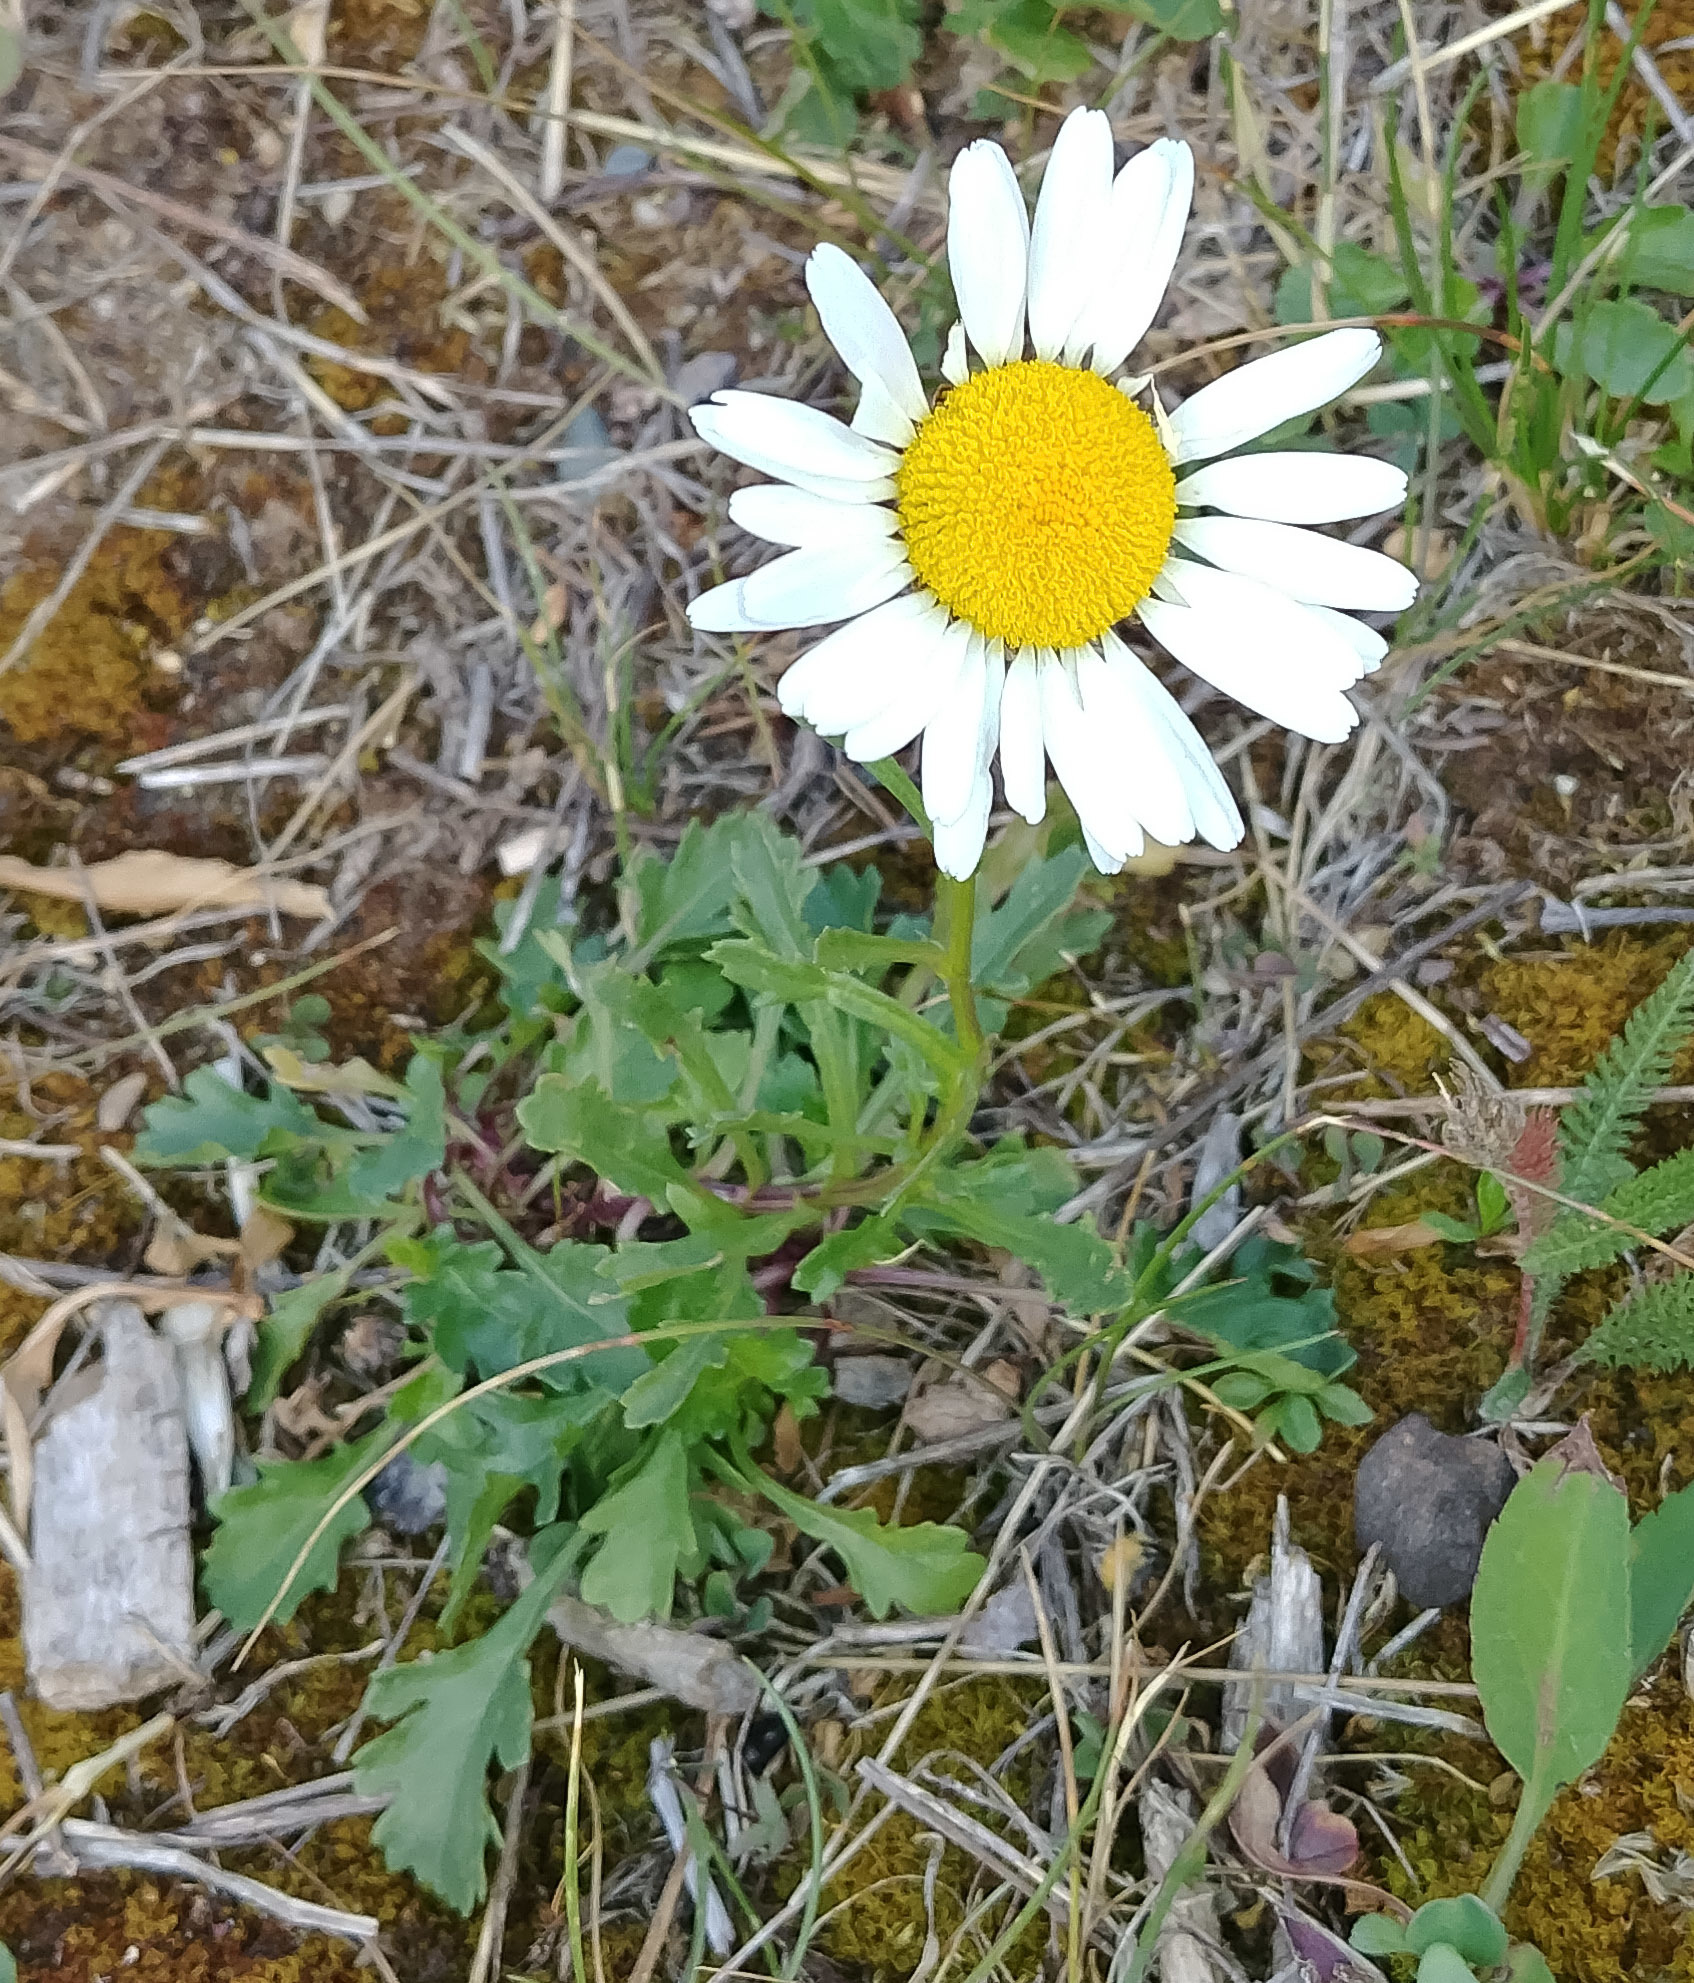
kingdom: Plantae
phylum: Tracheophyta
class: Magnoliopsida
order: Asterales
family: Asteraceae
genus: Leucanthemum
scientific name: Leucanthemum vulgare
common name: Oxeye daisy
